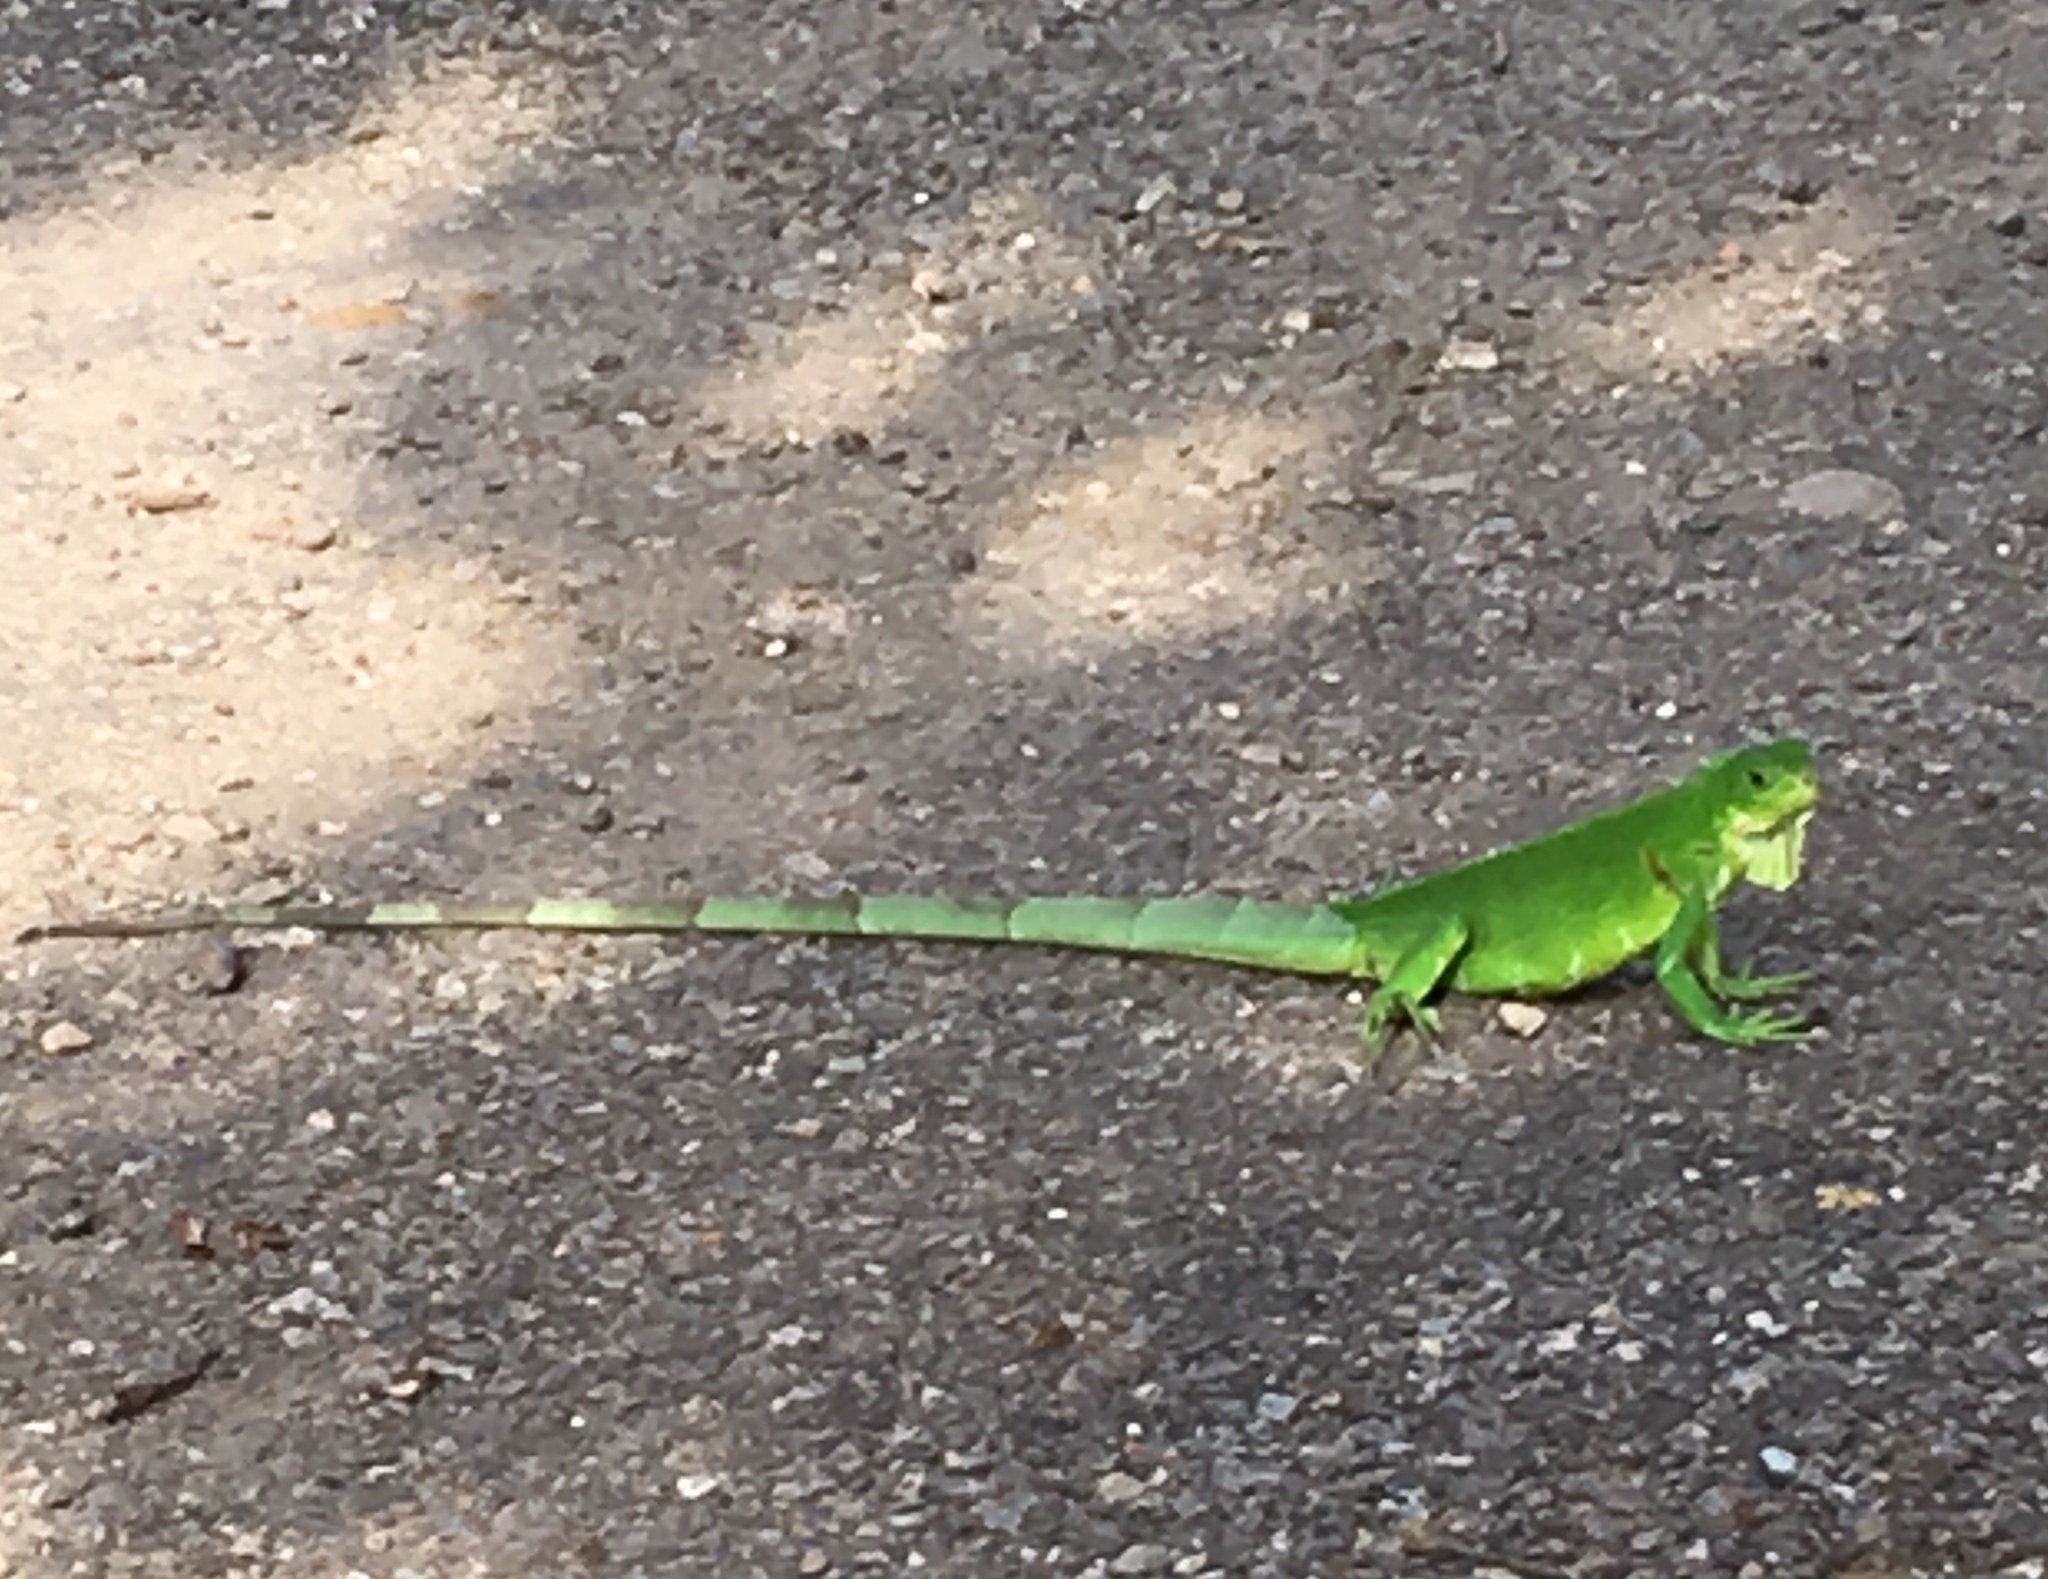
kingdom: Animalia
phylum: Chordata
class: Squamata
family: Iguanidae
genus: Iguana
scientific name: Iguana iguana
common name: Green iguana
